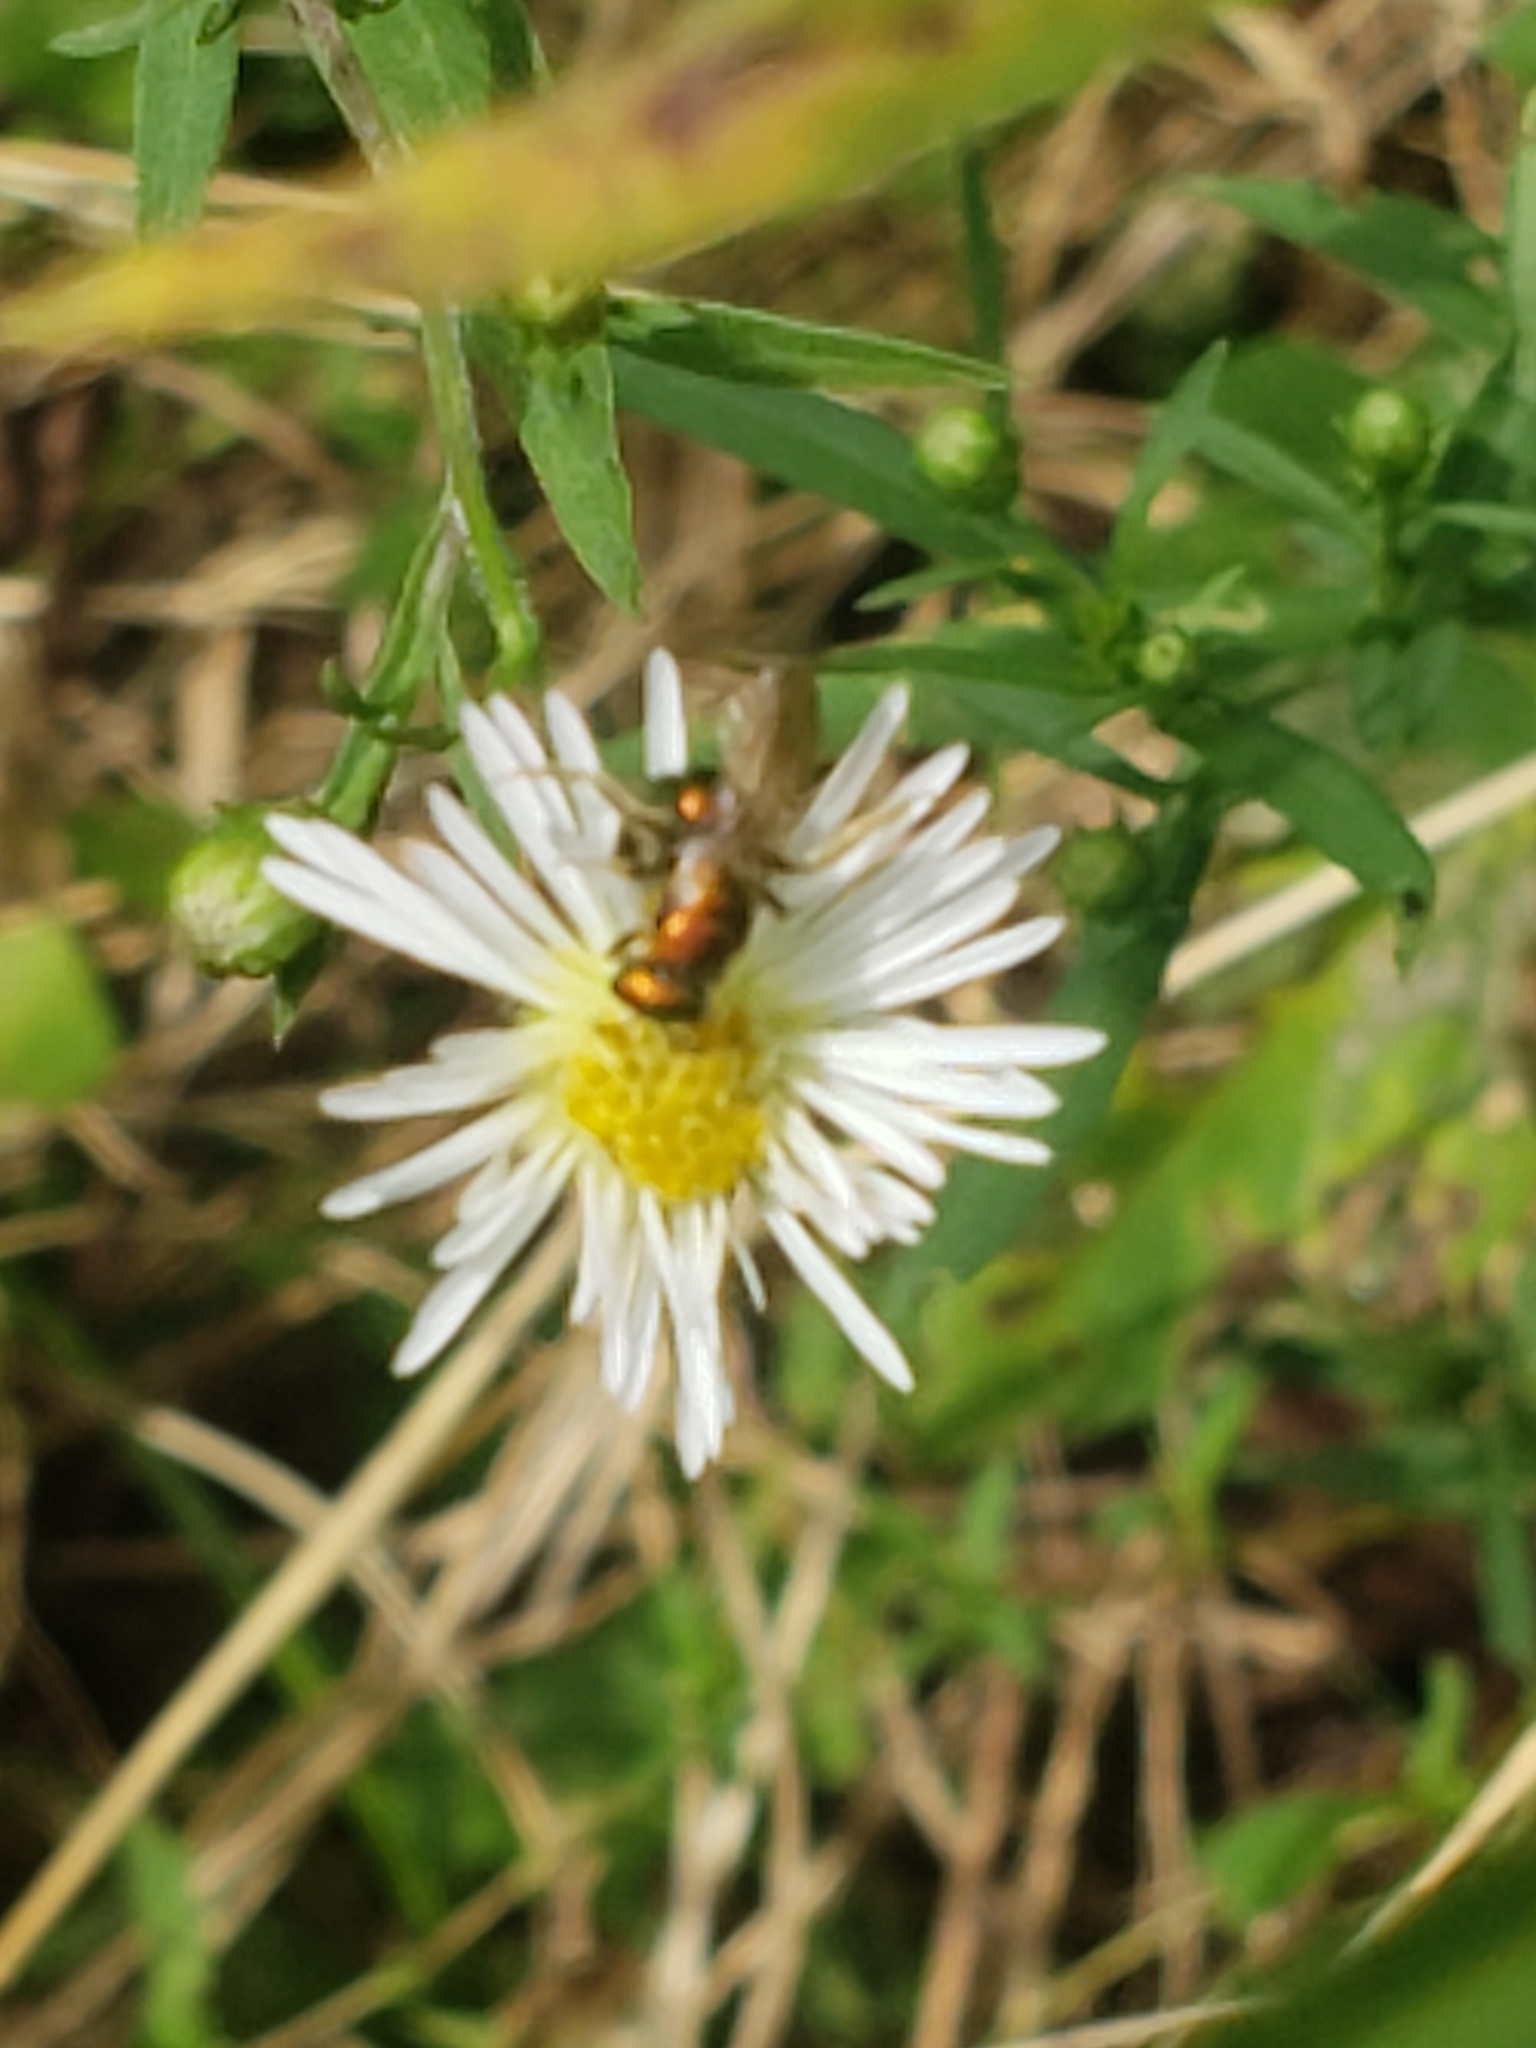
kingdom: Animalia
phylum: Arthropoda
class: Insecta
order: Hymenoptera
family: Halictidae
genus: Augochlora
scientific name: Augochlora pura
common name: Pure green sweat bee
